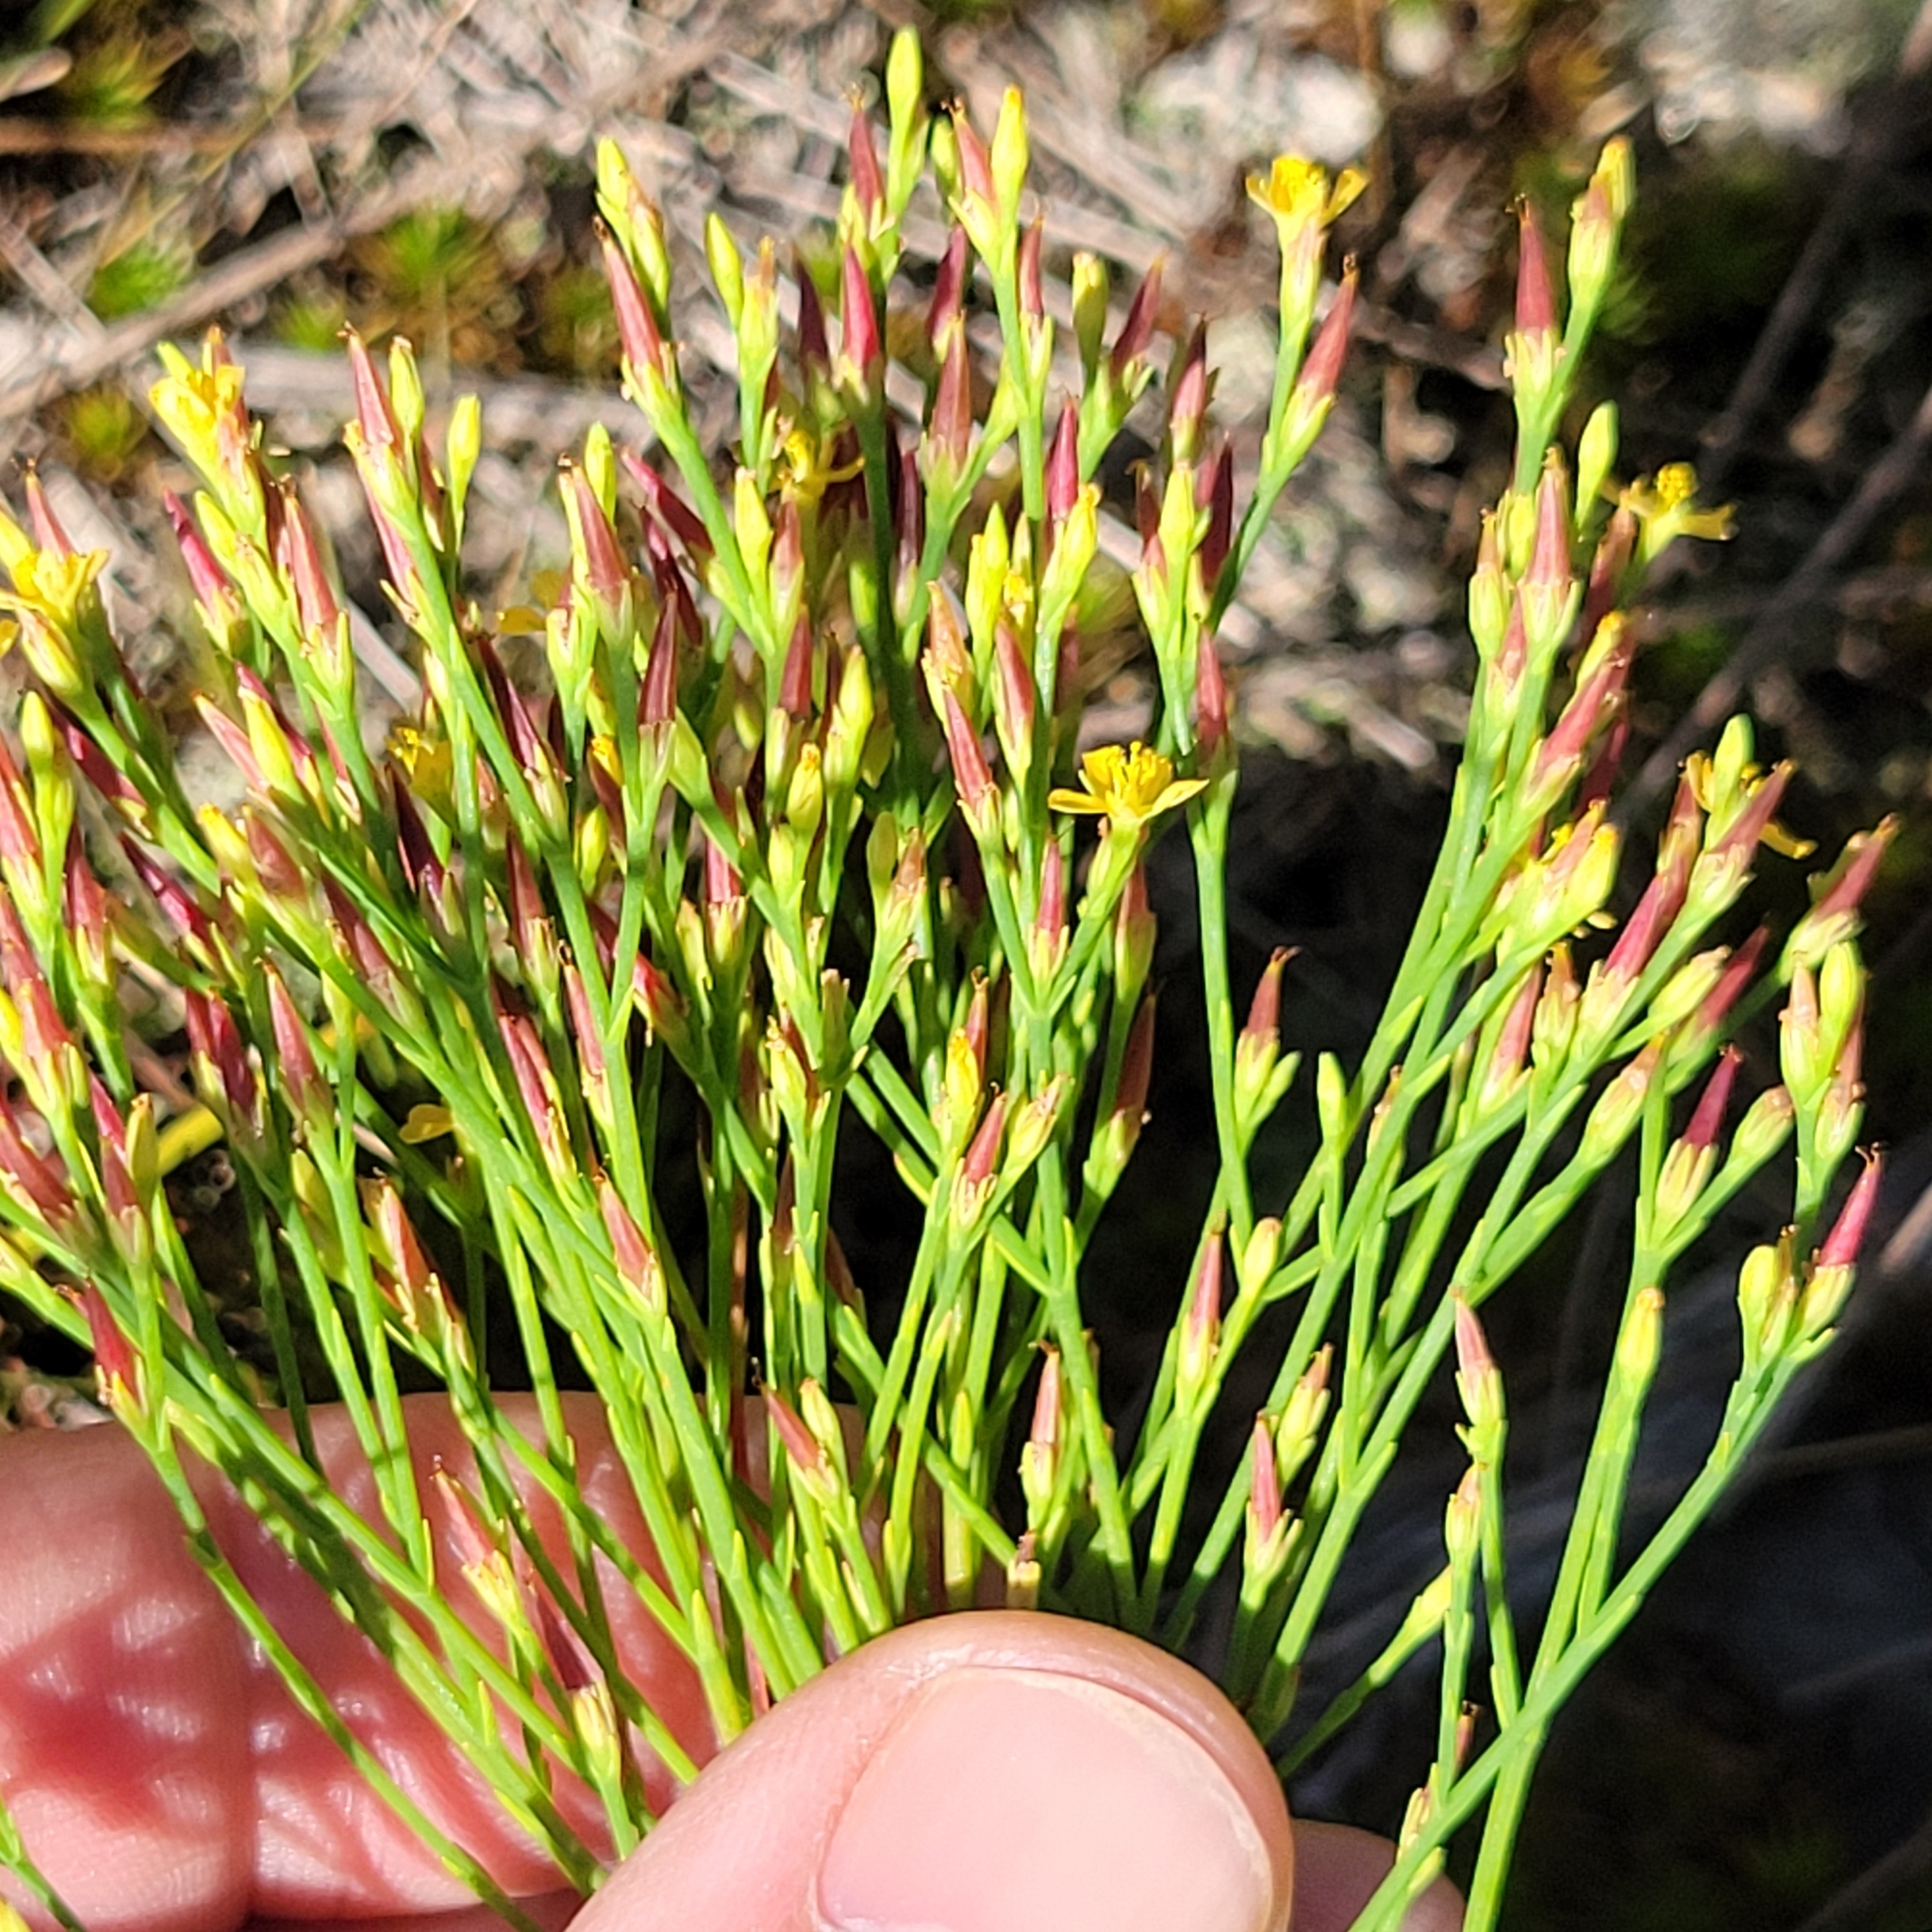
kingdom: Plantae
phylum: Tracheophyta
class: Magnoliopsida
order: Malpighiales
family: Hypericaceae
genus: Hypericum
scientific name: Hypericum gentianoides
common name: Gentian-leaved st. john's-wort
